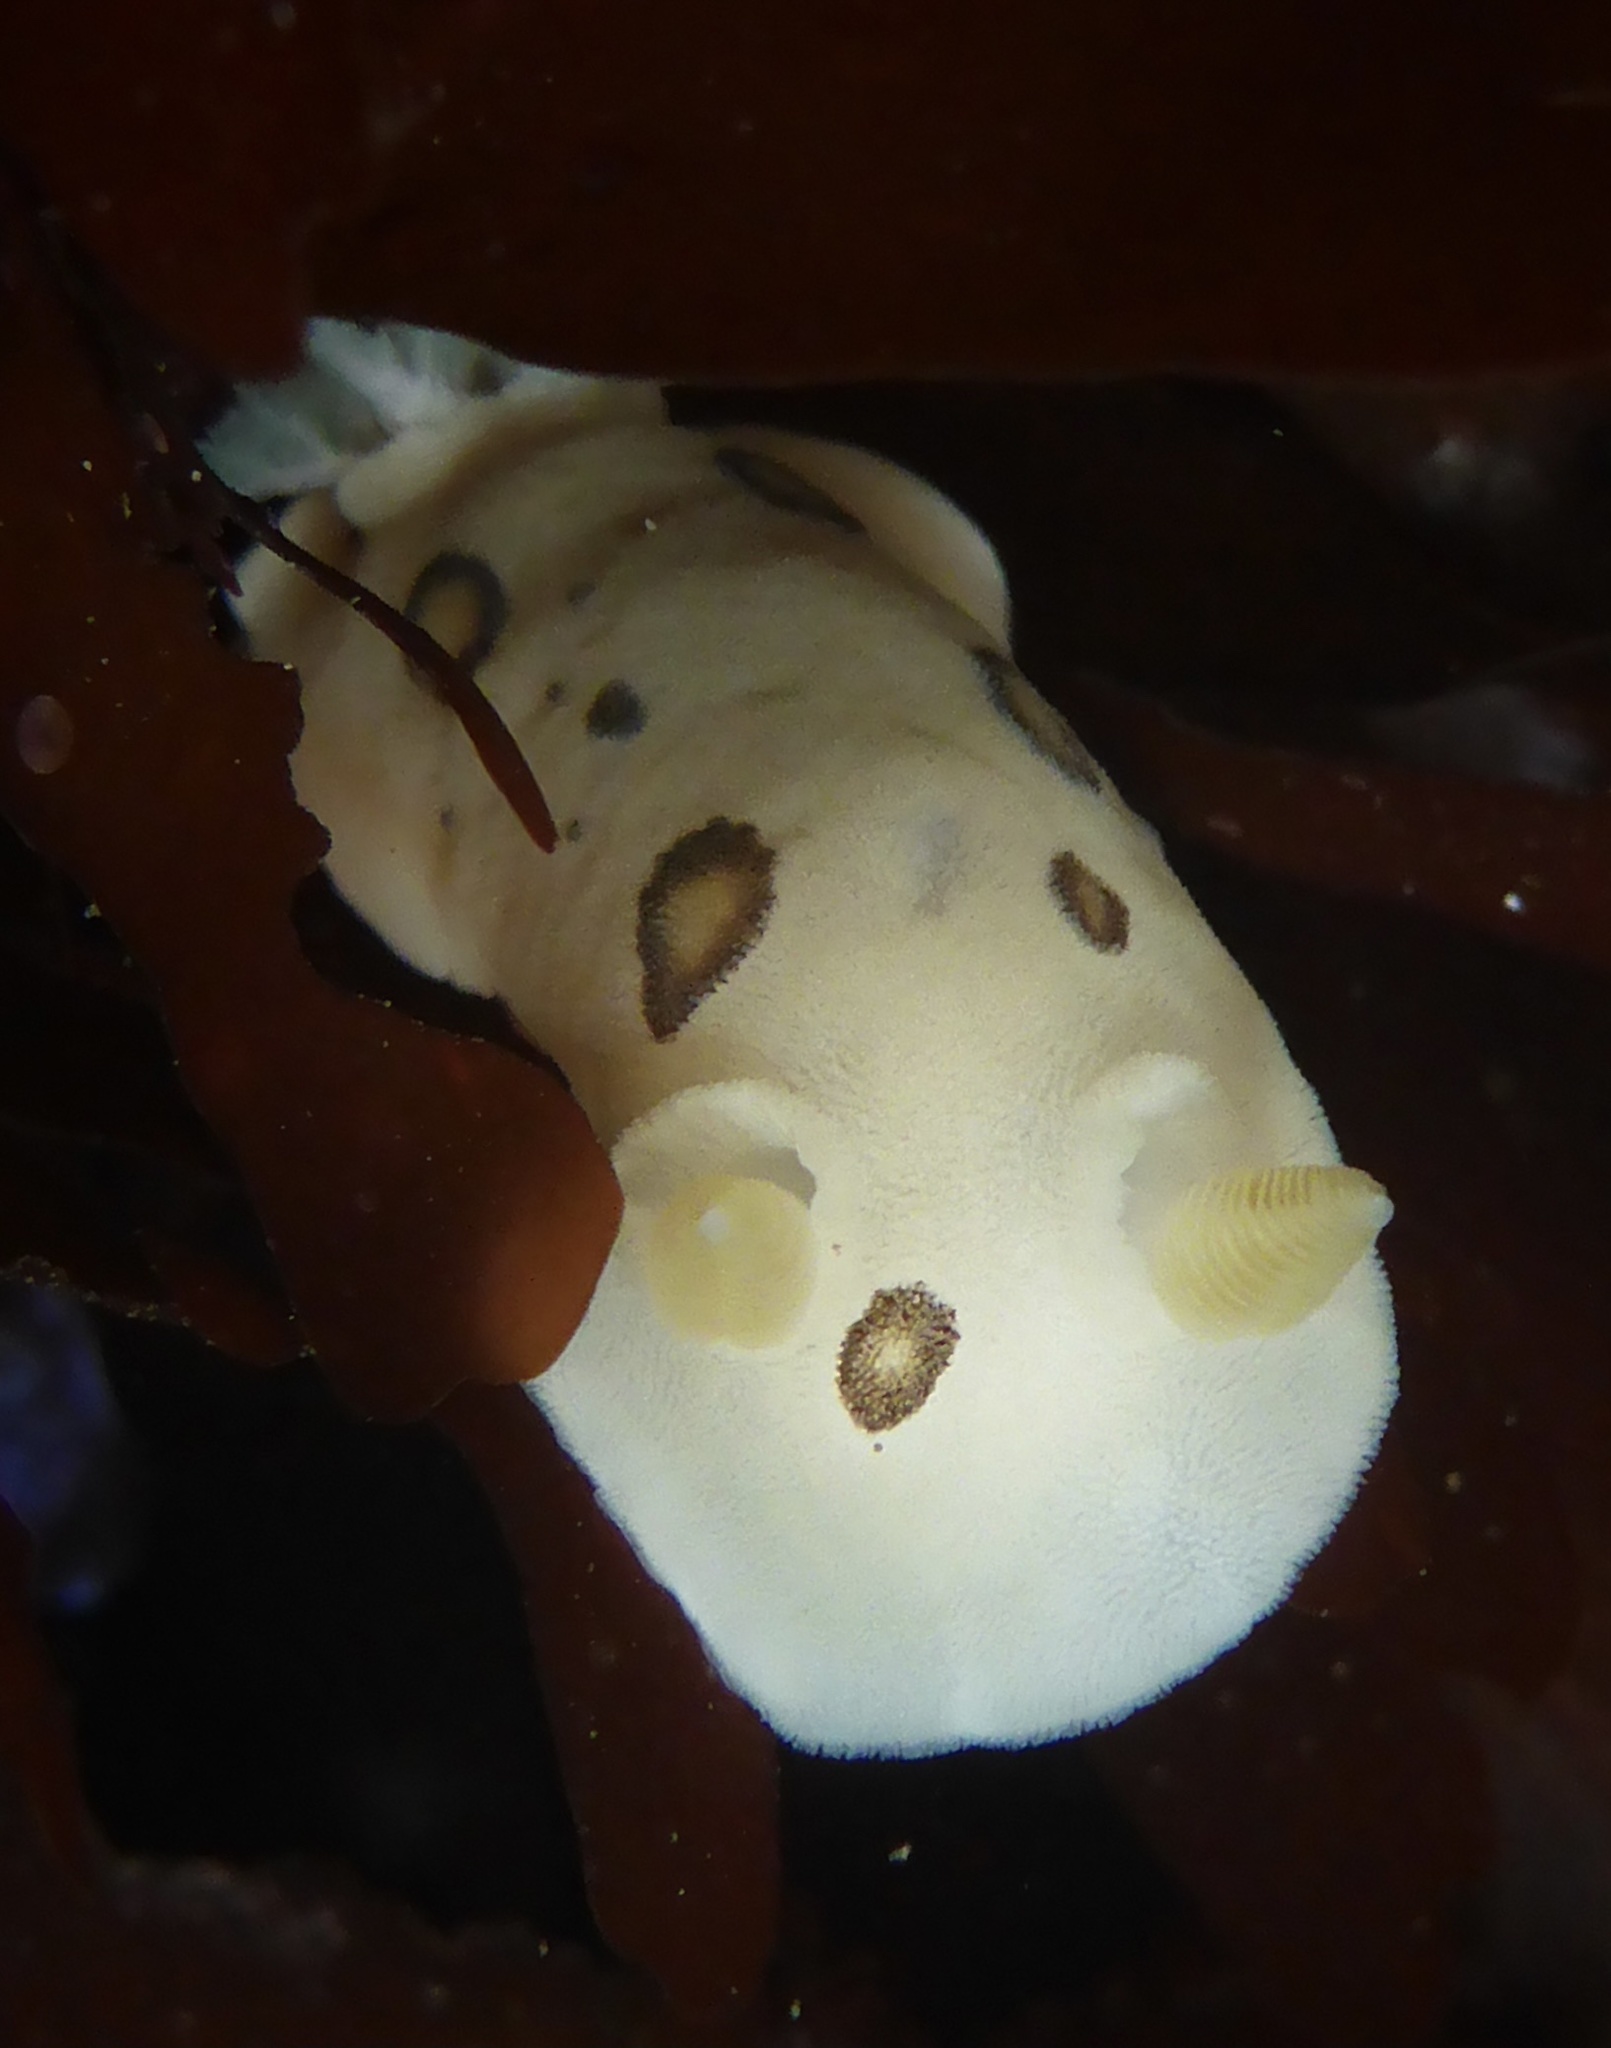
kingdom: Animalia
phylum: Mollusca
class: Gastropoda
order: Nudibranchia
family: Discodorididae
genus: Diaulula
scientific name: Diaulula sandiegensis
